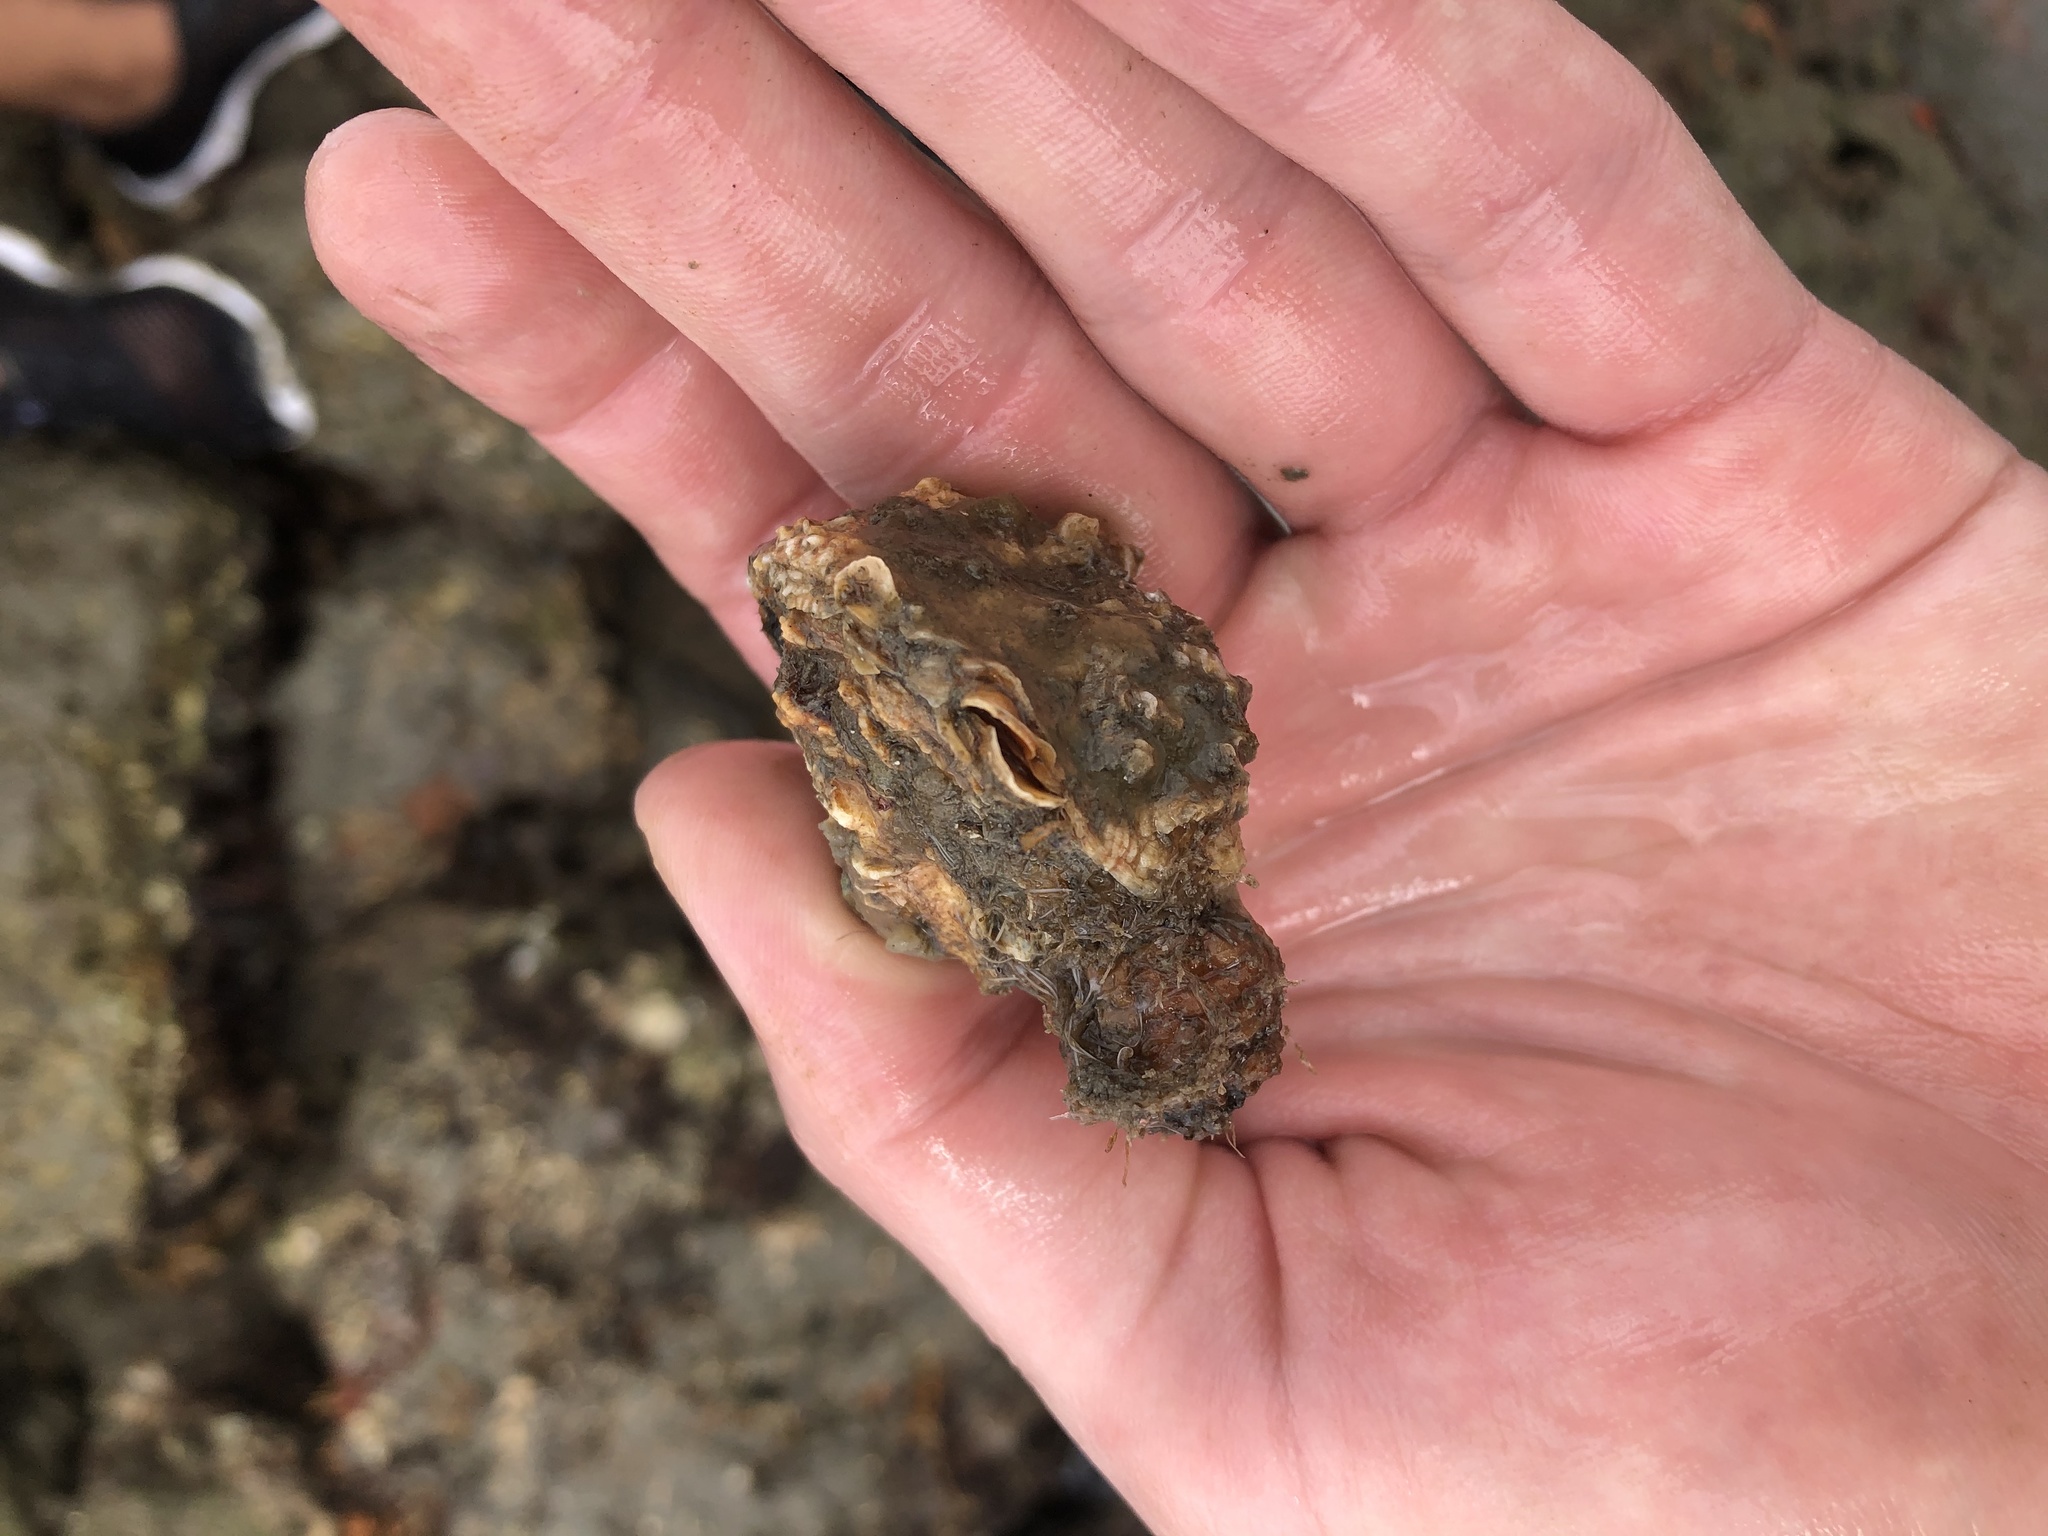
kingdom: Animalia
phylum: Mollusca
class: Bivalvia
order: Venerida
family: Chamidae
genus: Pseudochama
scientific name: Pseudochama cristella
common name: Atlantic jewelbox
